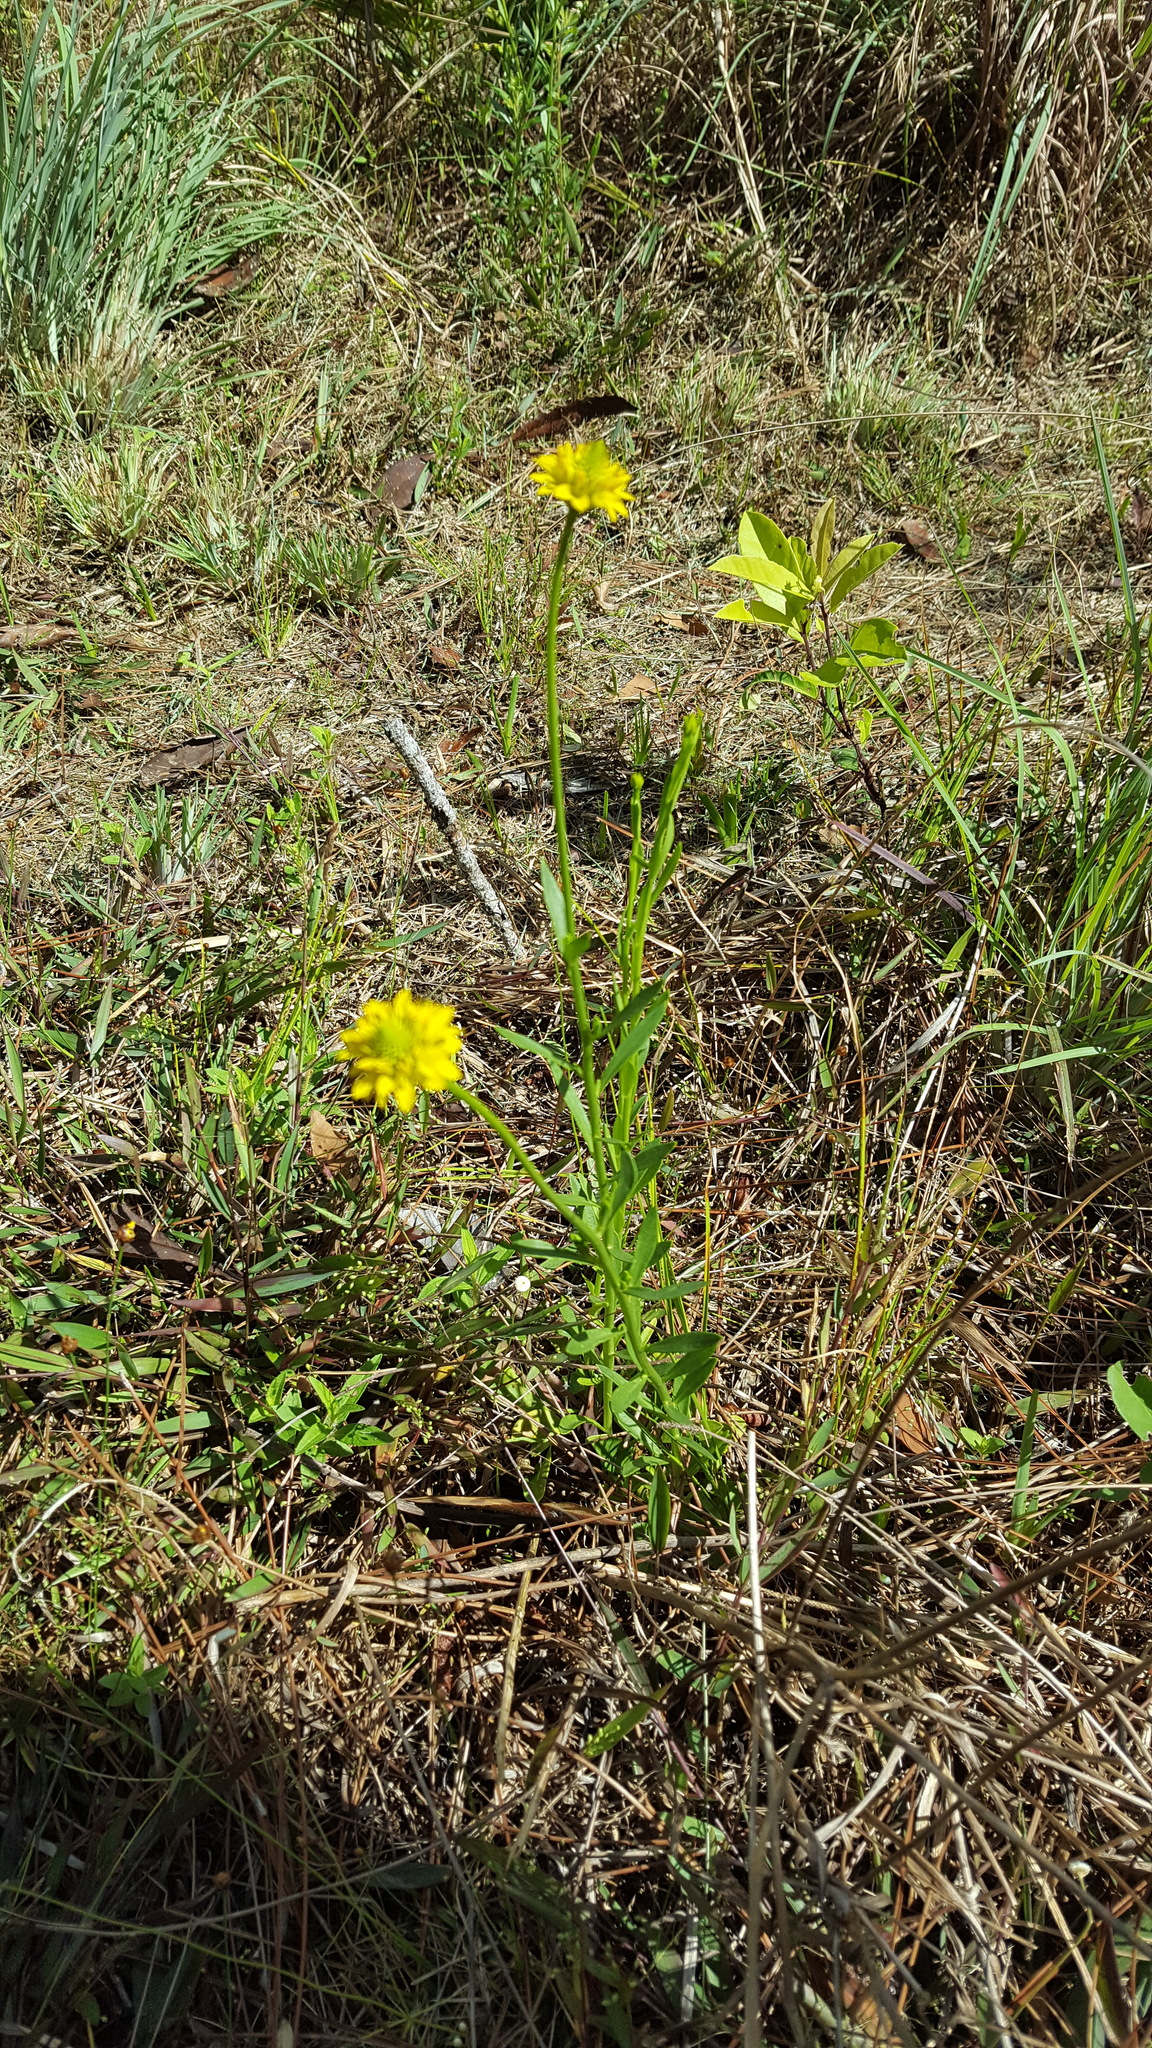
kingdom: Plantae
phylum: Tracheophyta
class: Magnoliopsida
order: Fabales
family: Polygalaceae
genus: Polygala
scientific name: Polygala rugelii
